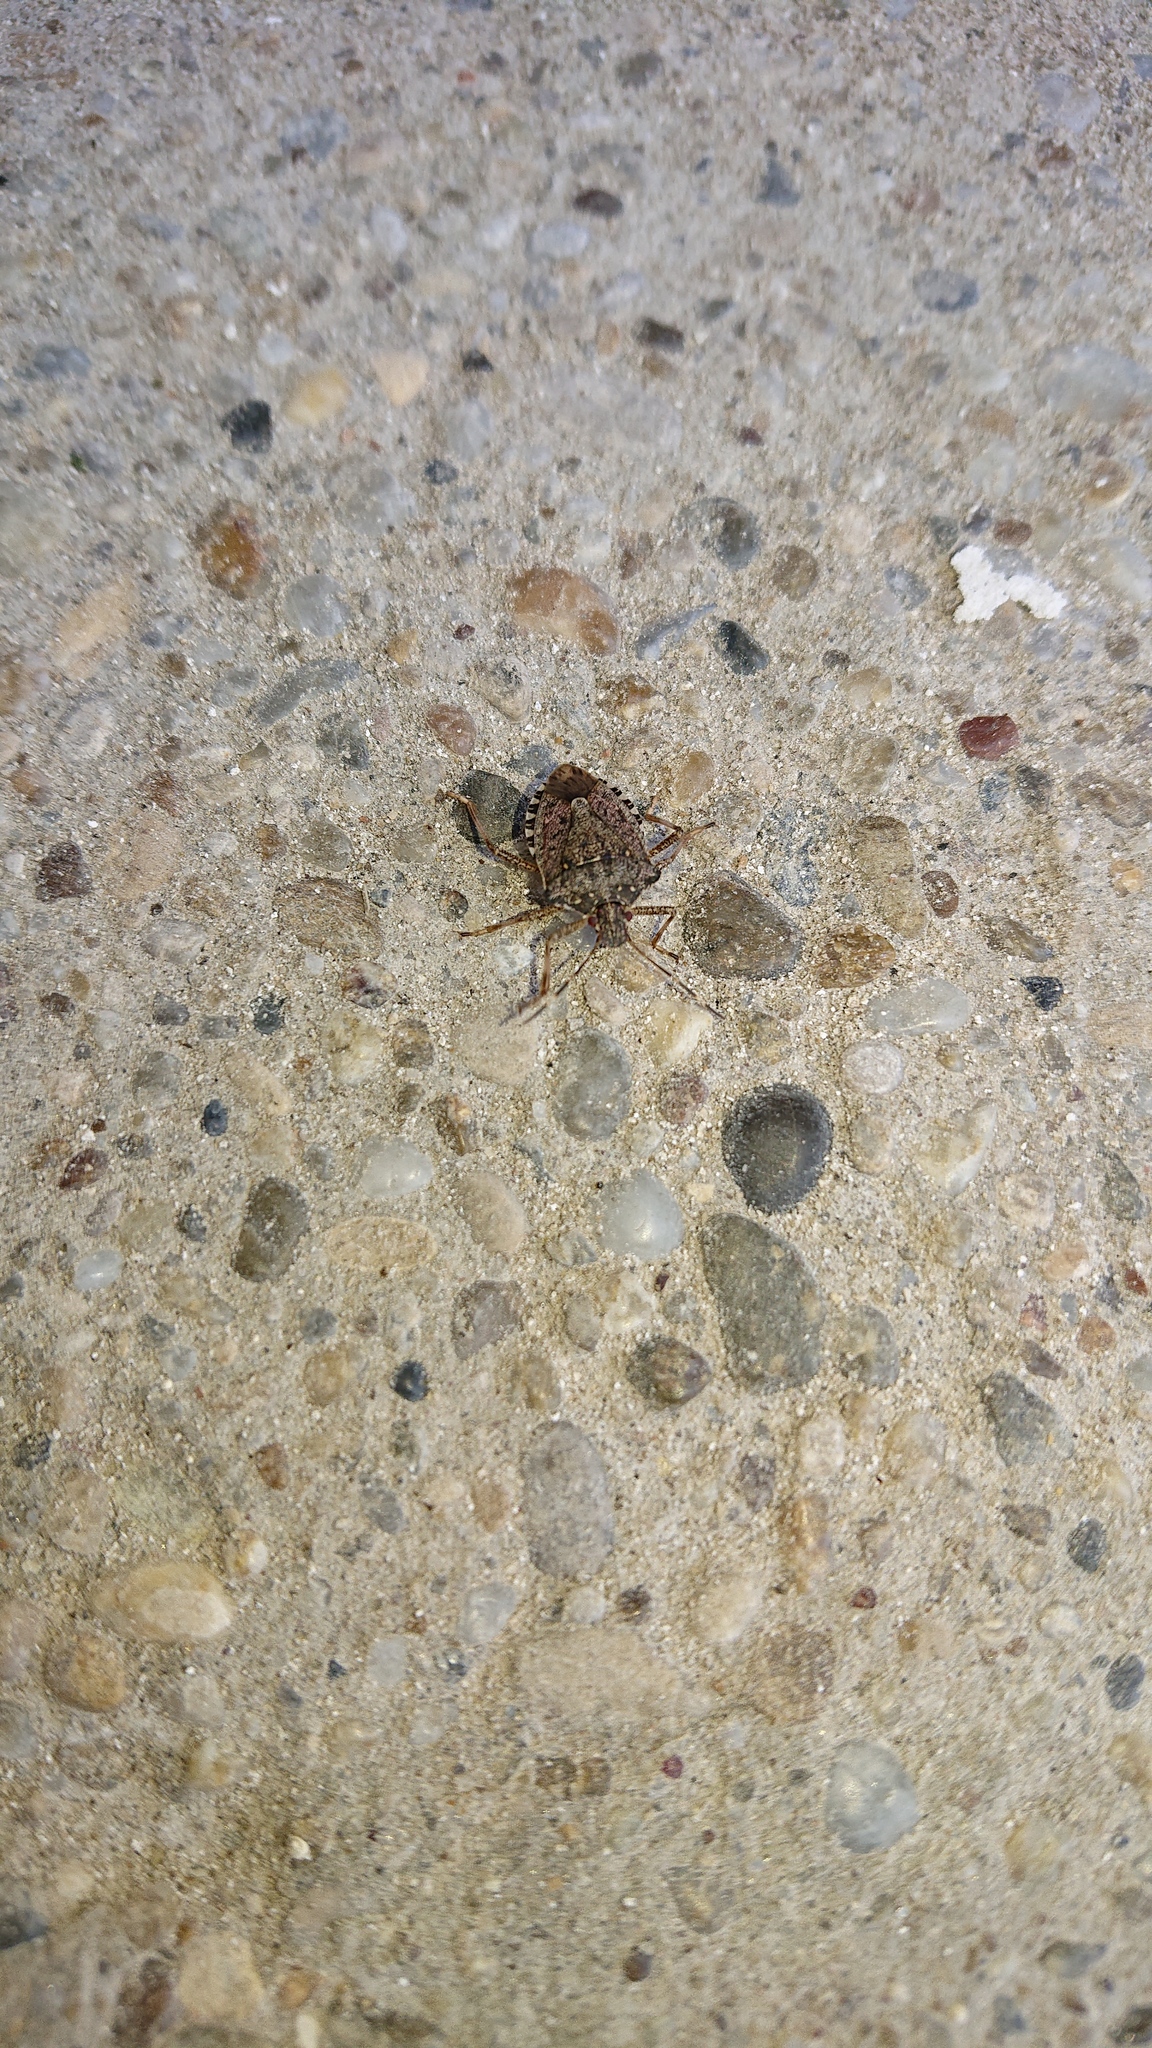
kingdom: Animalia
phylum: Arthropoda
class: Insecta
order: Hemiptera
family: Pentatomidae
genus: Halyomorpha
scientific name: Halyomorpha halys
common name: Brown marmorated stink bug
